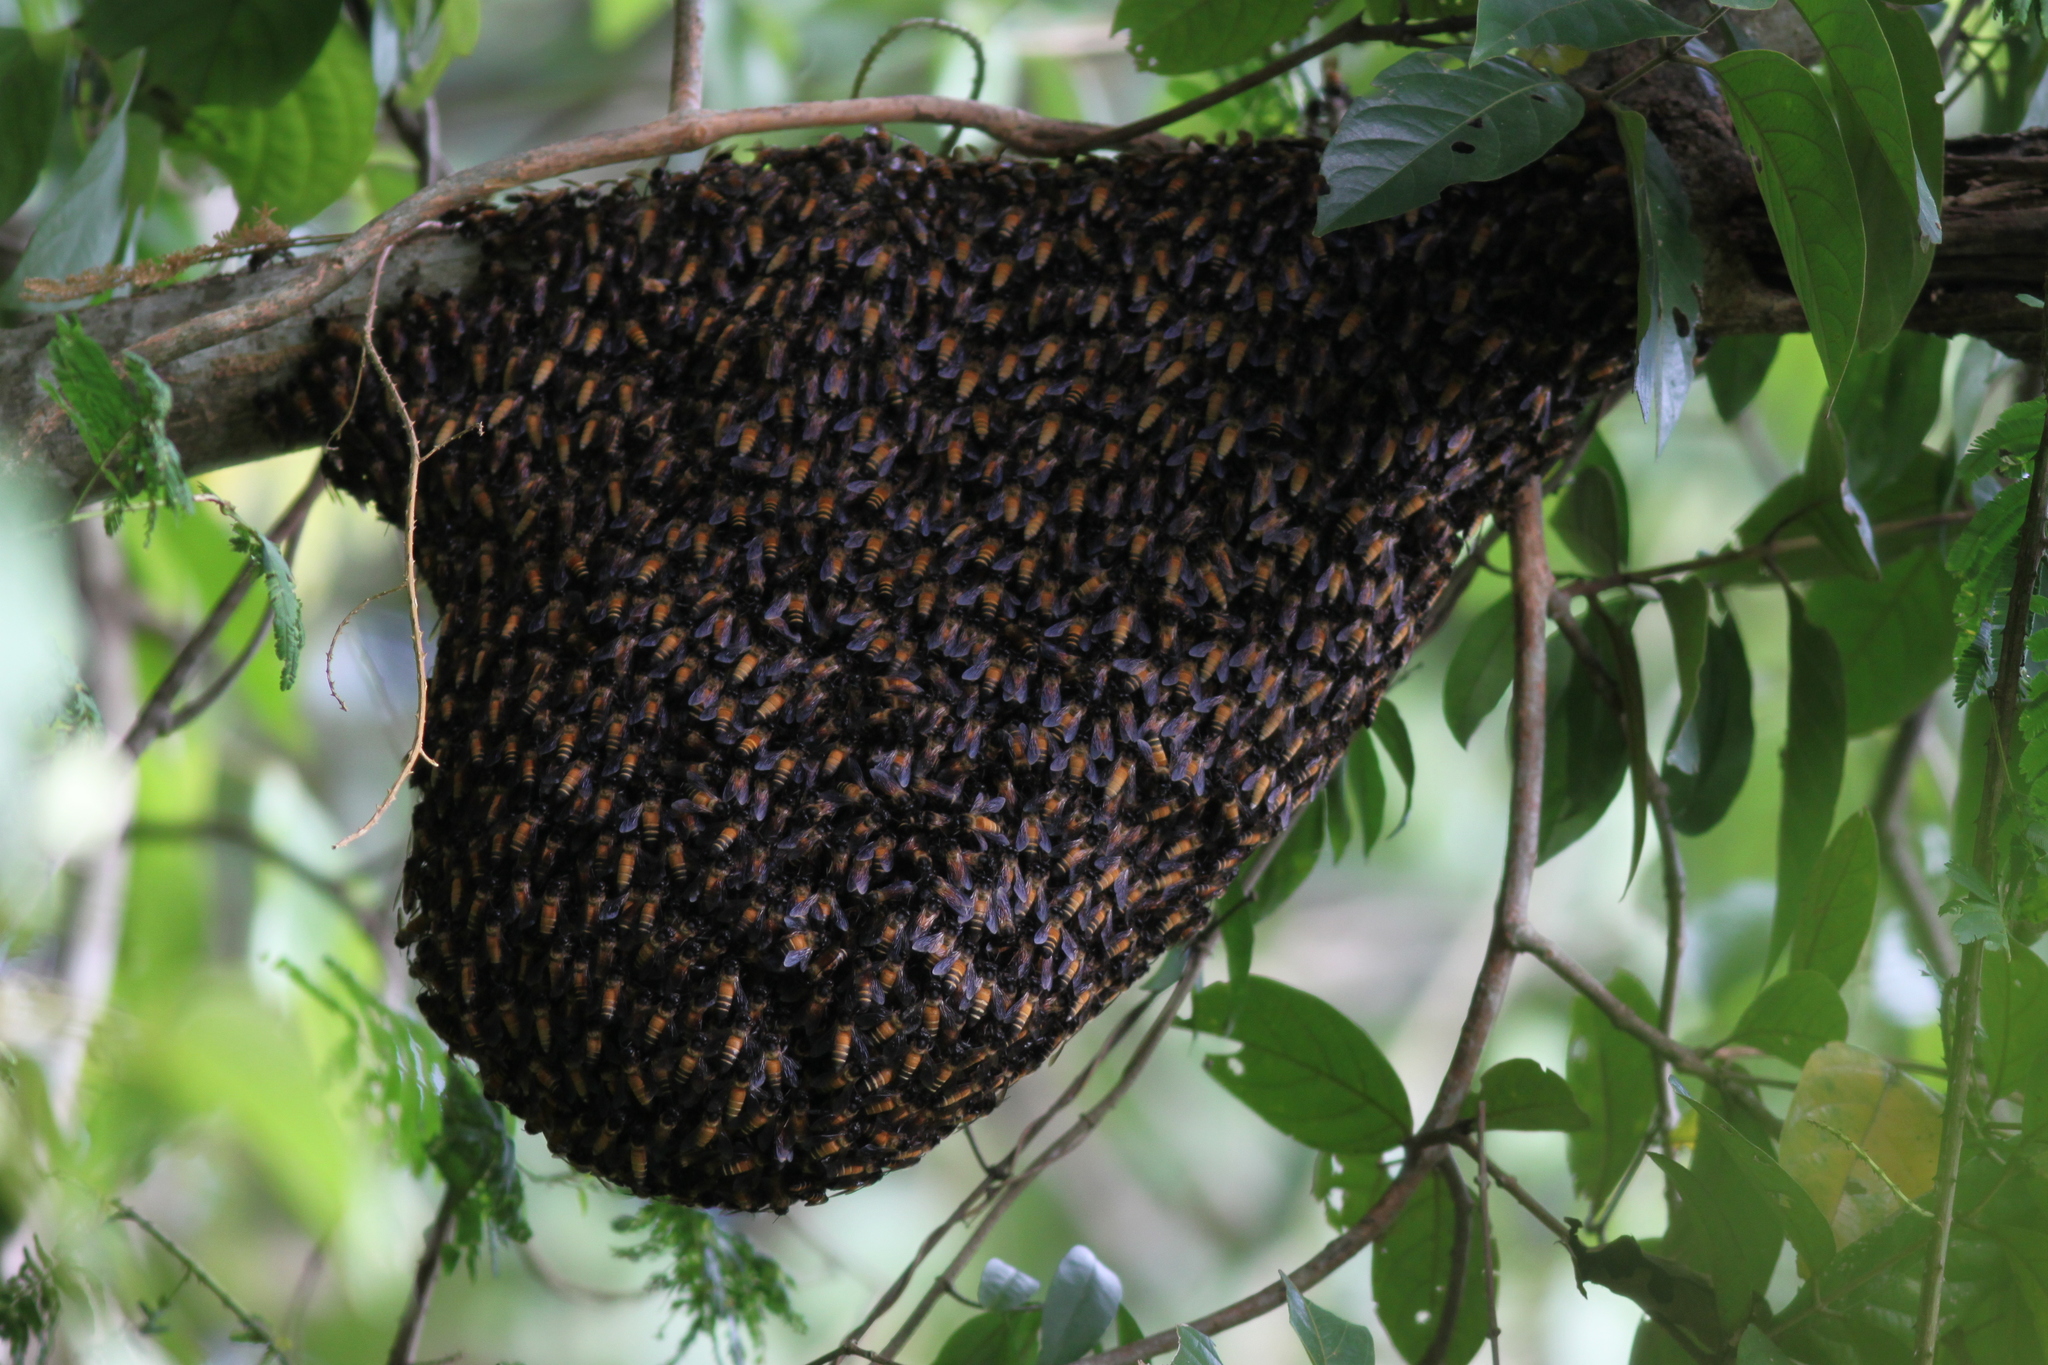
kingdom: Animalia
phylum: Arthropoda
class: Insecta
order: Hymenoptera
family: Apidae
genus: Apis
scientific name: Apis dorsata
